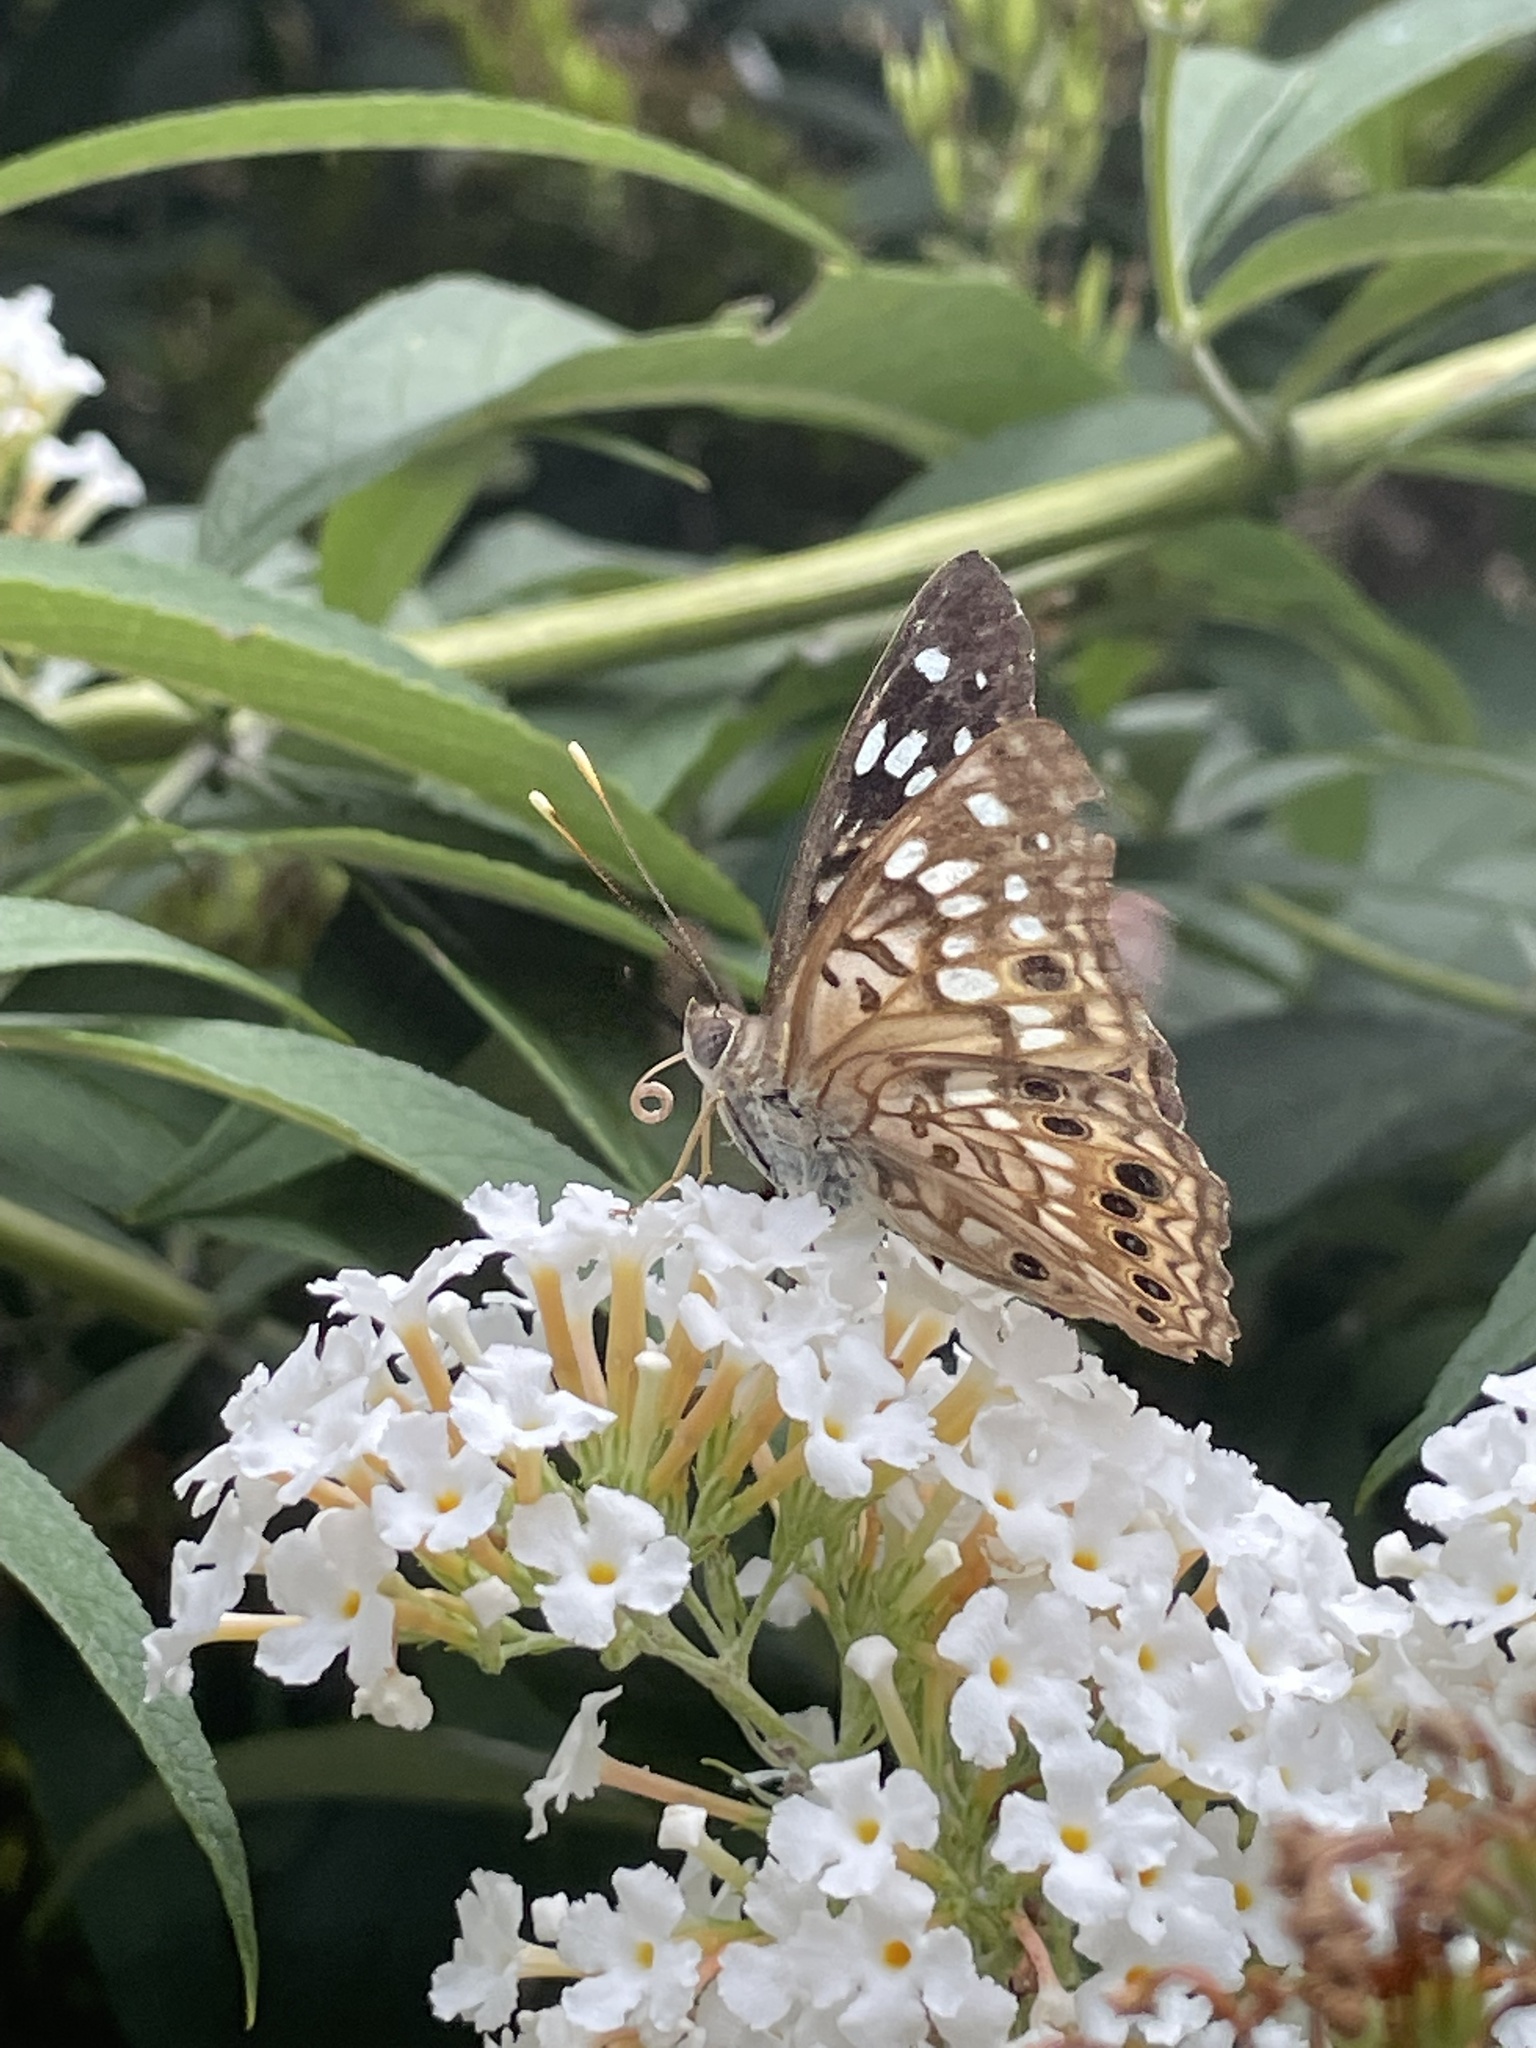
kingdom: Animalia
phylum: Arthropoda
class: Insecta
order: Lepidoptera
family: Nymphalidae
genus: Asterocampa
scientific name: Asterocampa celtis
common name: Hackberry emperor
